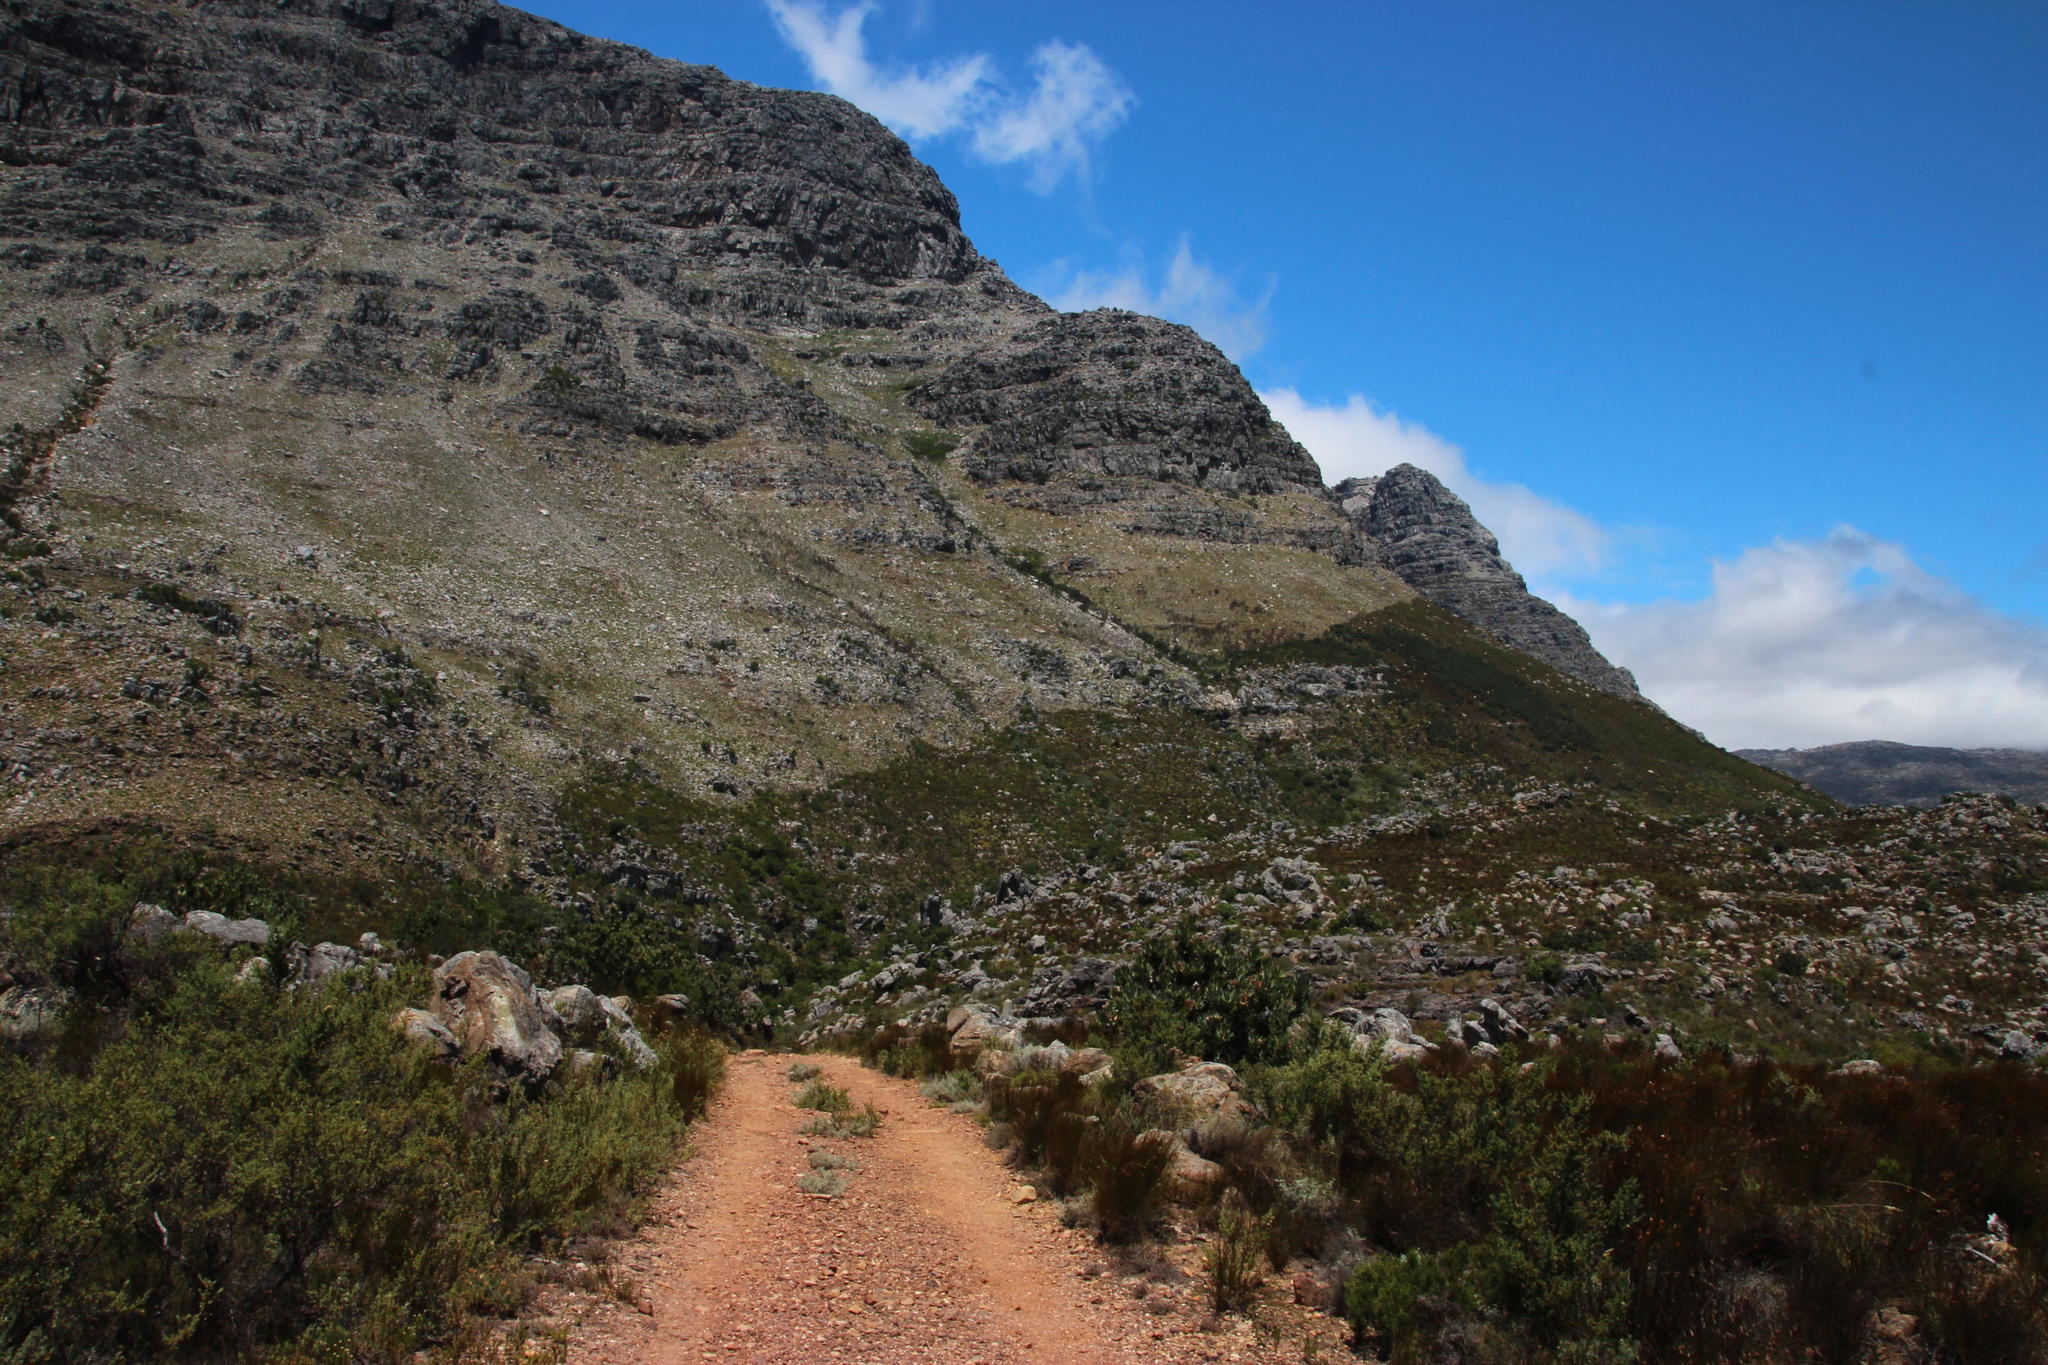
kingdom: Plantae
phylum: Tracheophyta
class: Magnoliopsida
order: Proteales
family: Proteaceae
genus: Protea
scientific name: Protea laurifolia
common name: Grey-leaf sugarbsh
